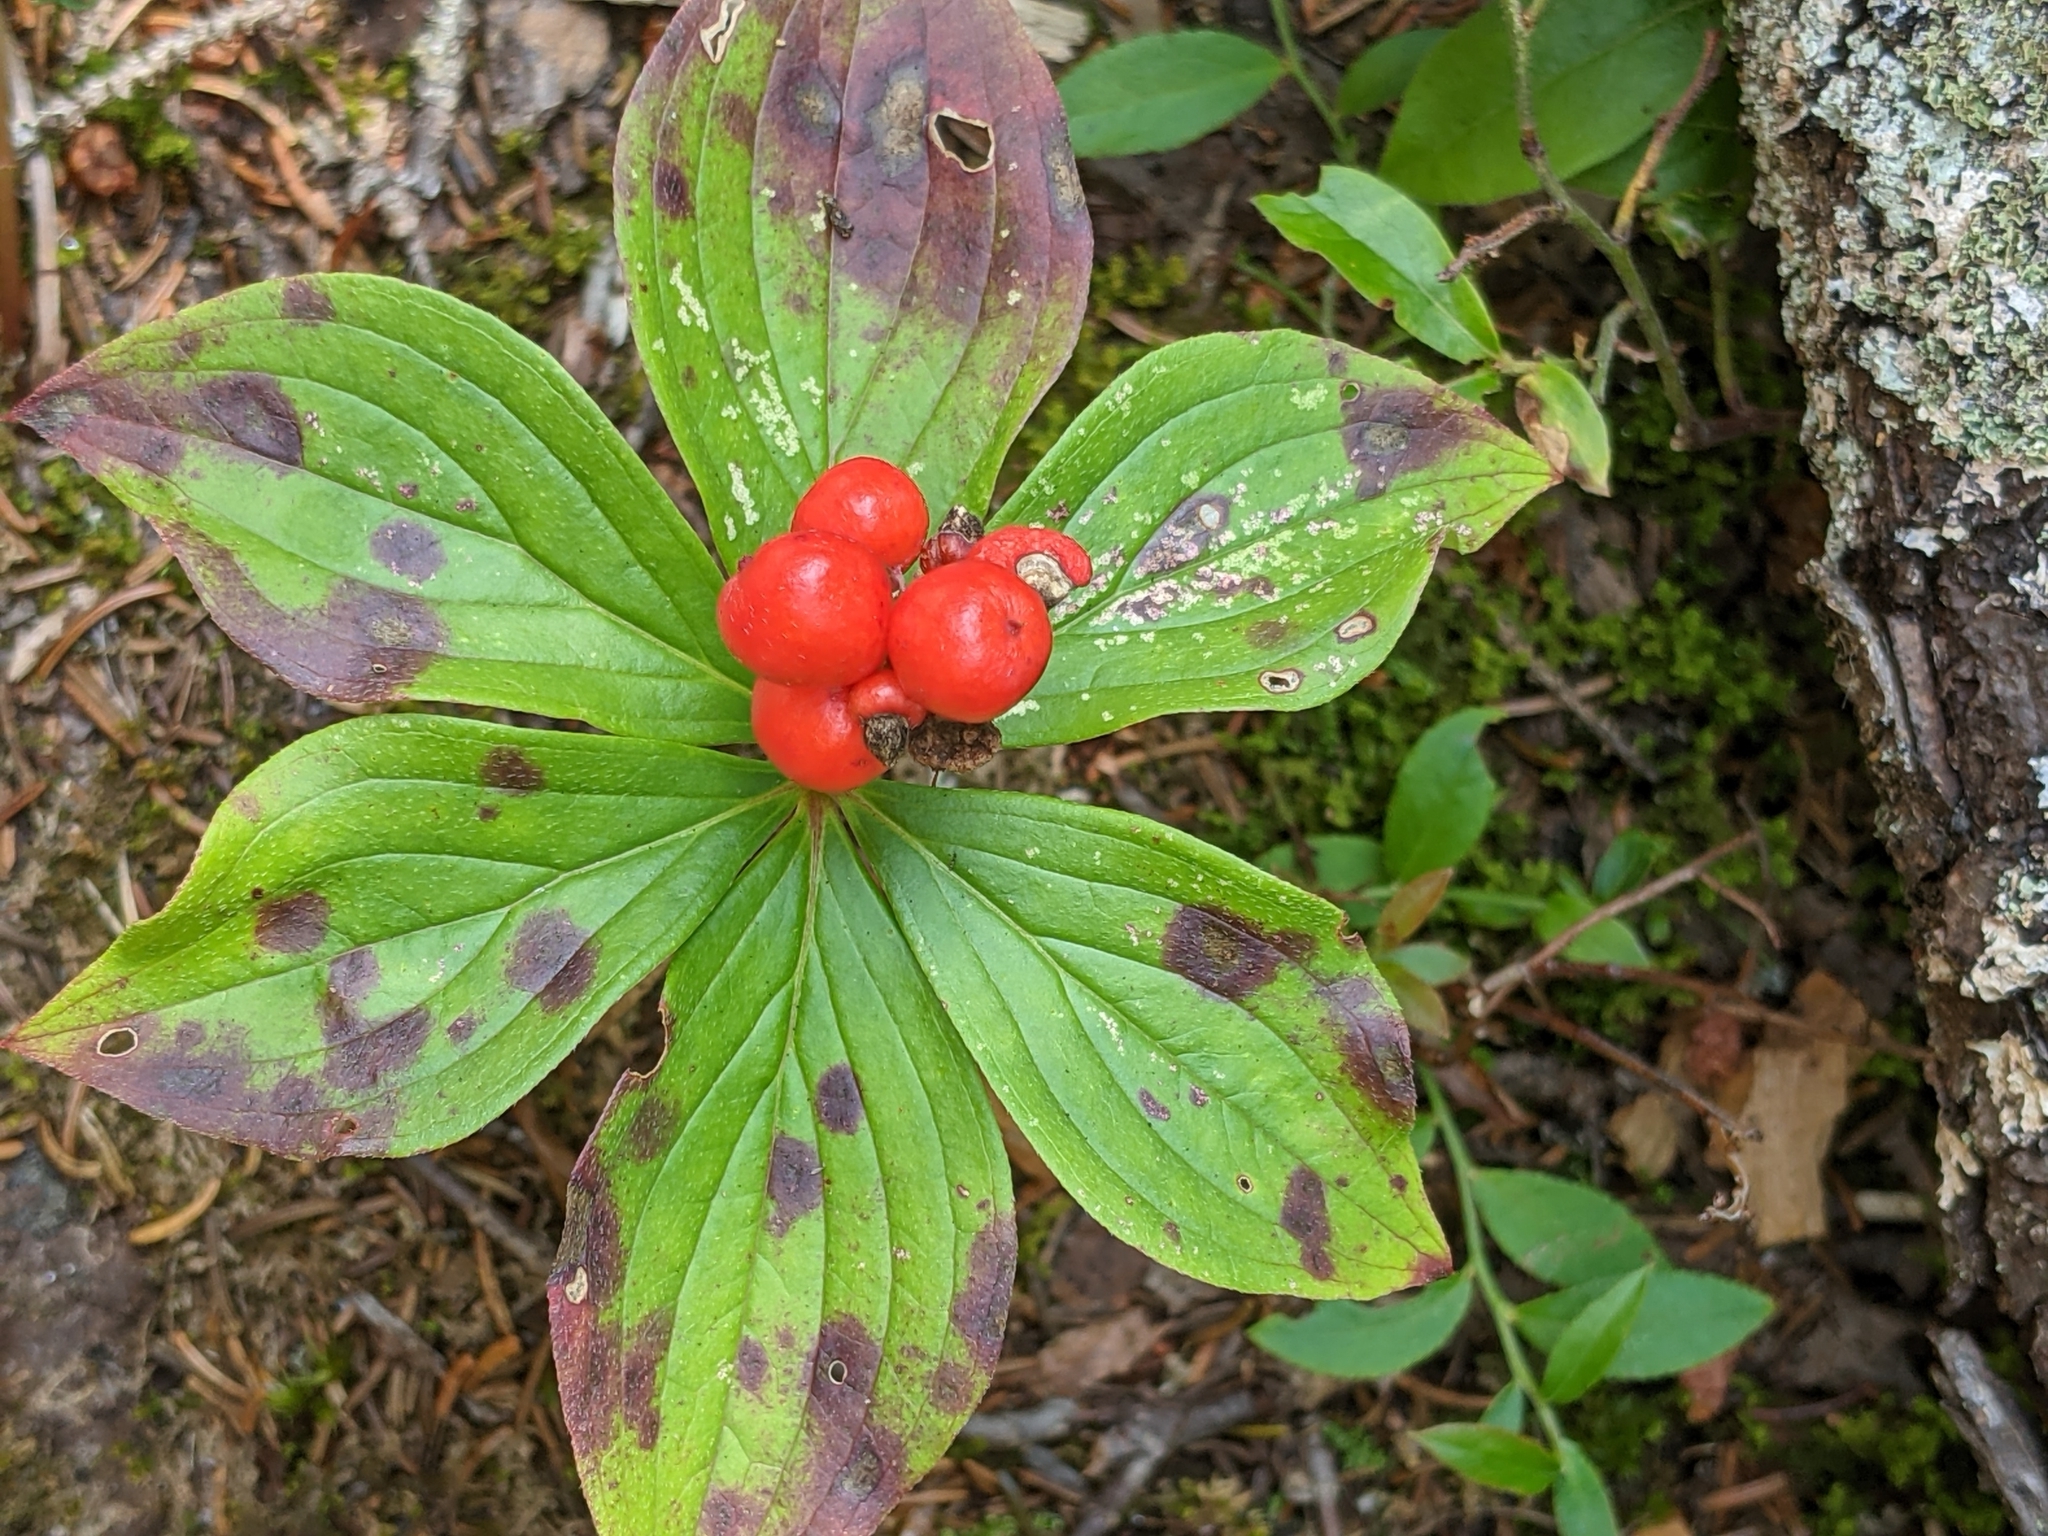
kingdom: Plantae
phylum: Tracheophyta
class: Magnoliopsida
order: Cornales
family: Cornaceae
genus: Cornus
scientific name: Cornus canadensis
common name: Creeping dogwood
